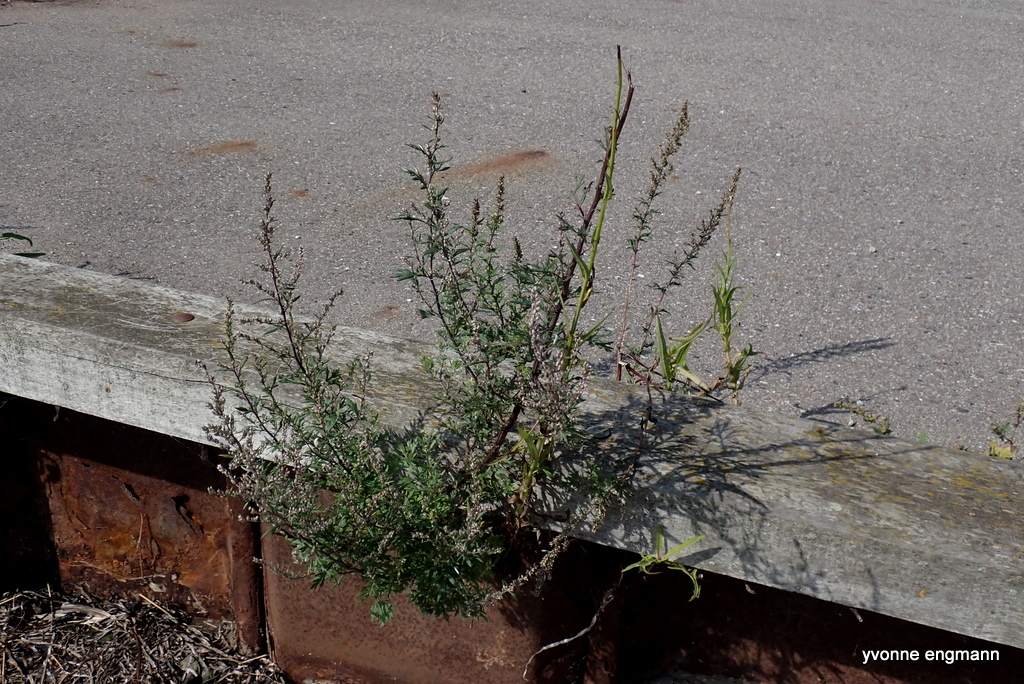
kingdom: Plantae
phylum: Tracheophyta
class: Magnoliopsida
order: Asterales
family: Asteraceae
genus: Artemisia
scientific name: Artemisia vulgaris
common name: Mugwort
